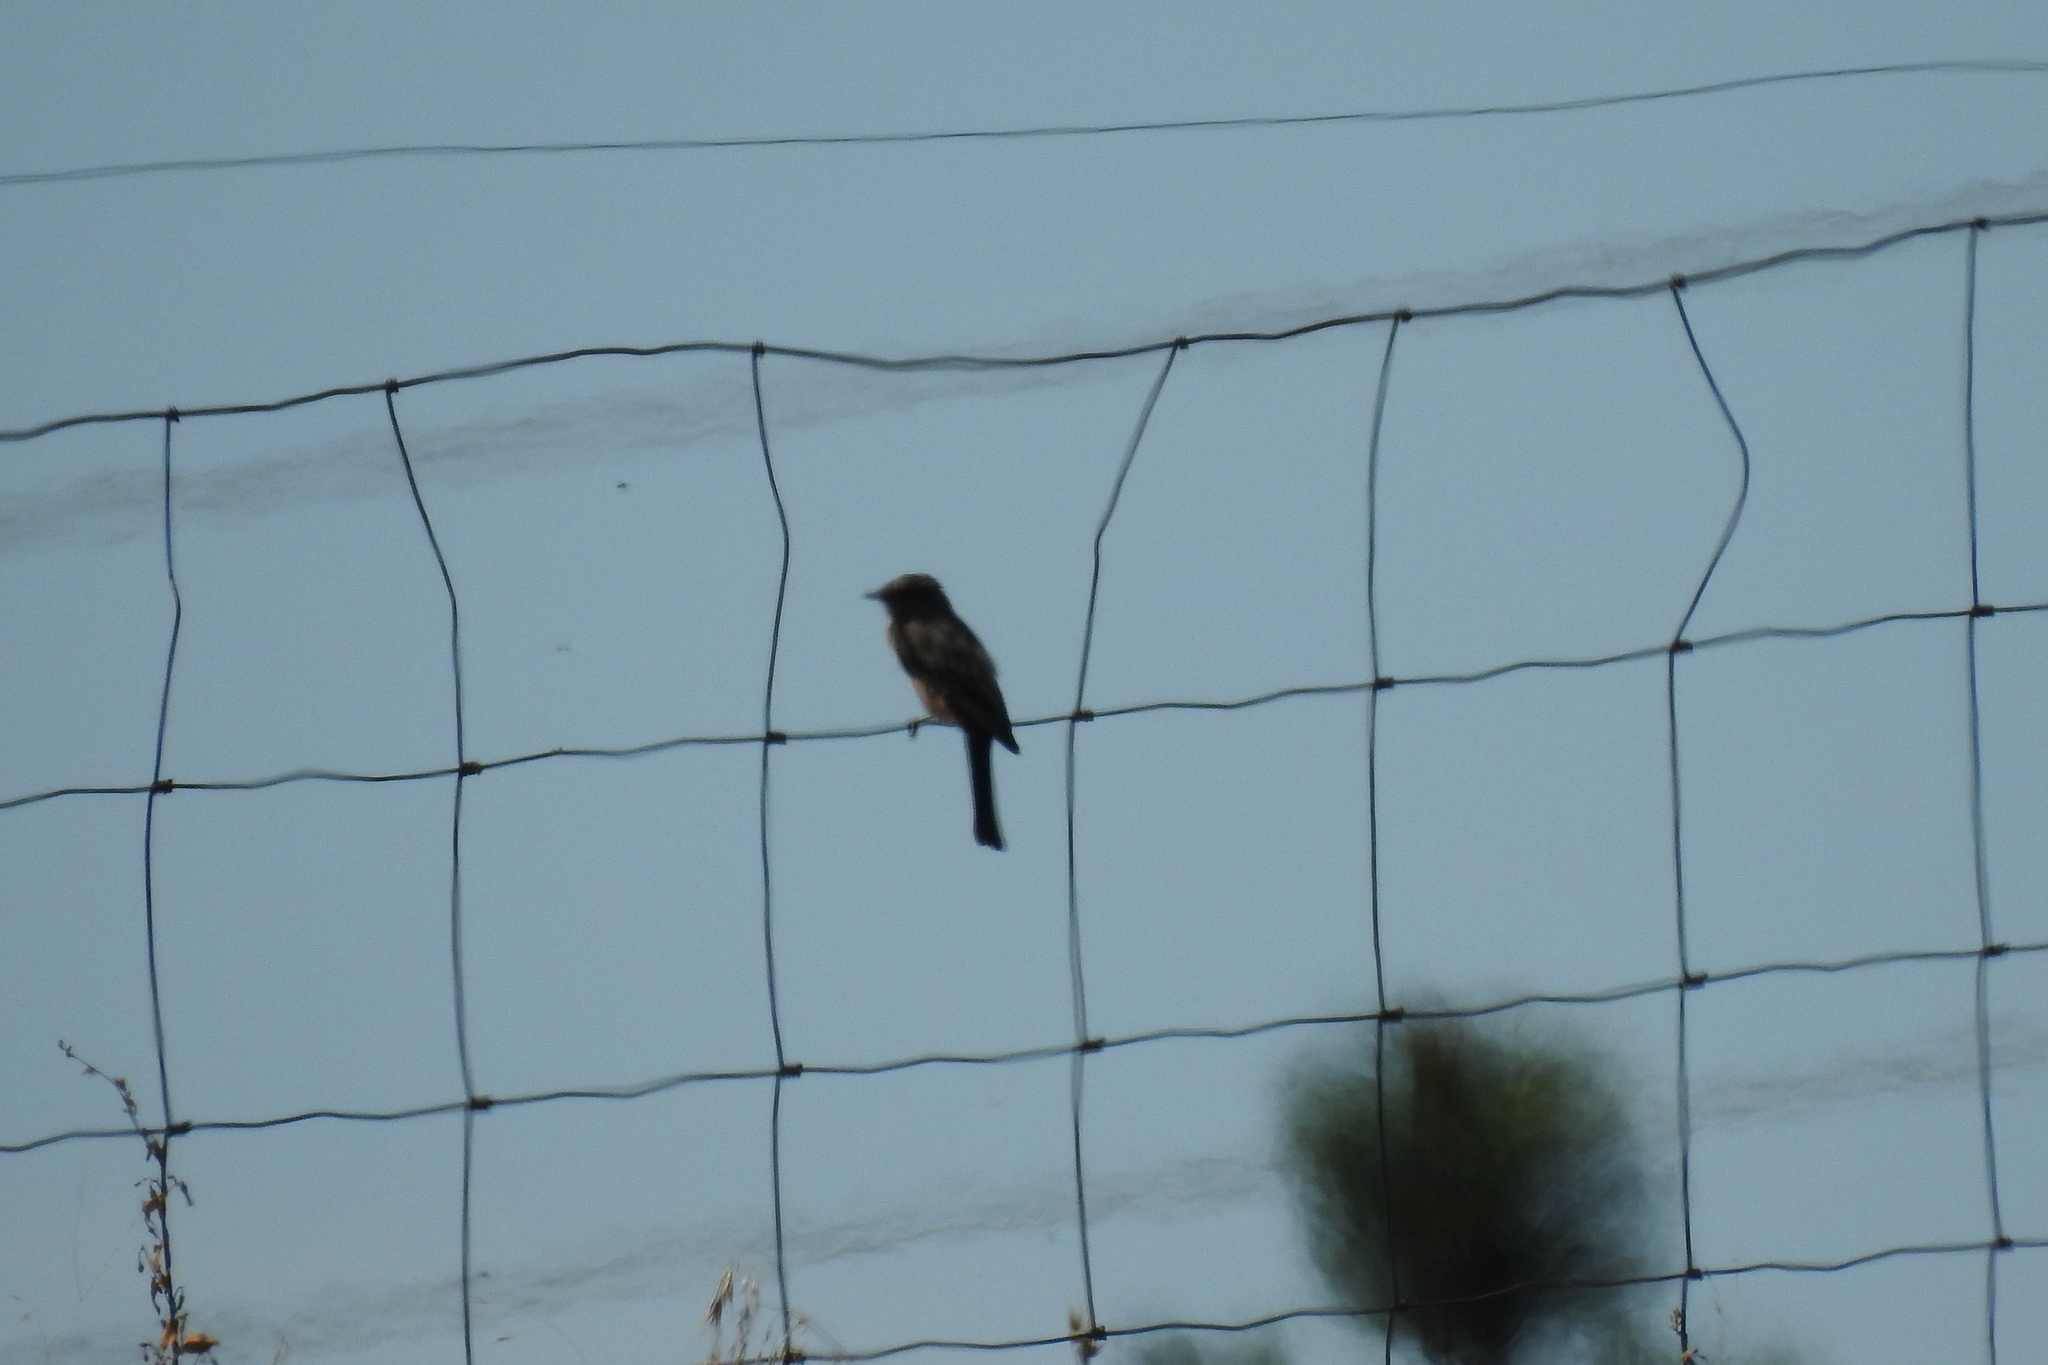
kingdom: Animalia
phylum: Chordata
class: Aves
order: Passeriformes
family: Tyrannidae
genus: Sayornis
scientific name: Sayornis saya
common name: Say's phoebe
